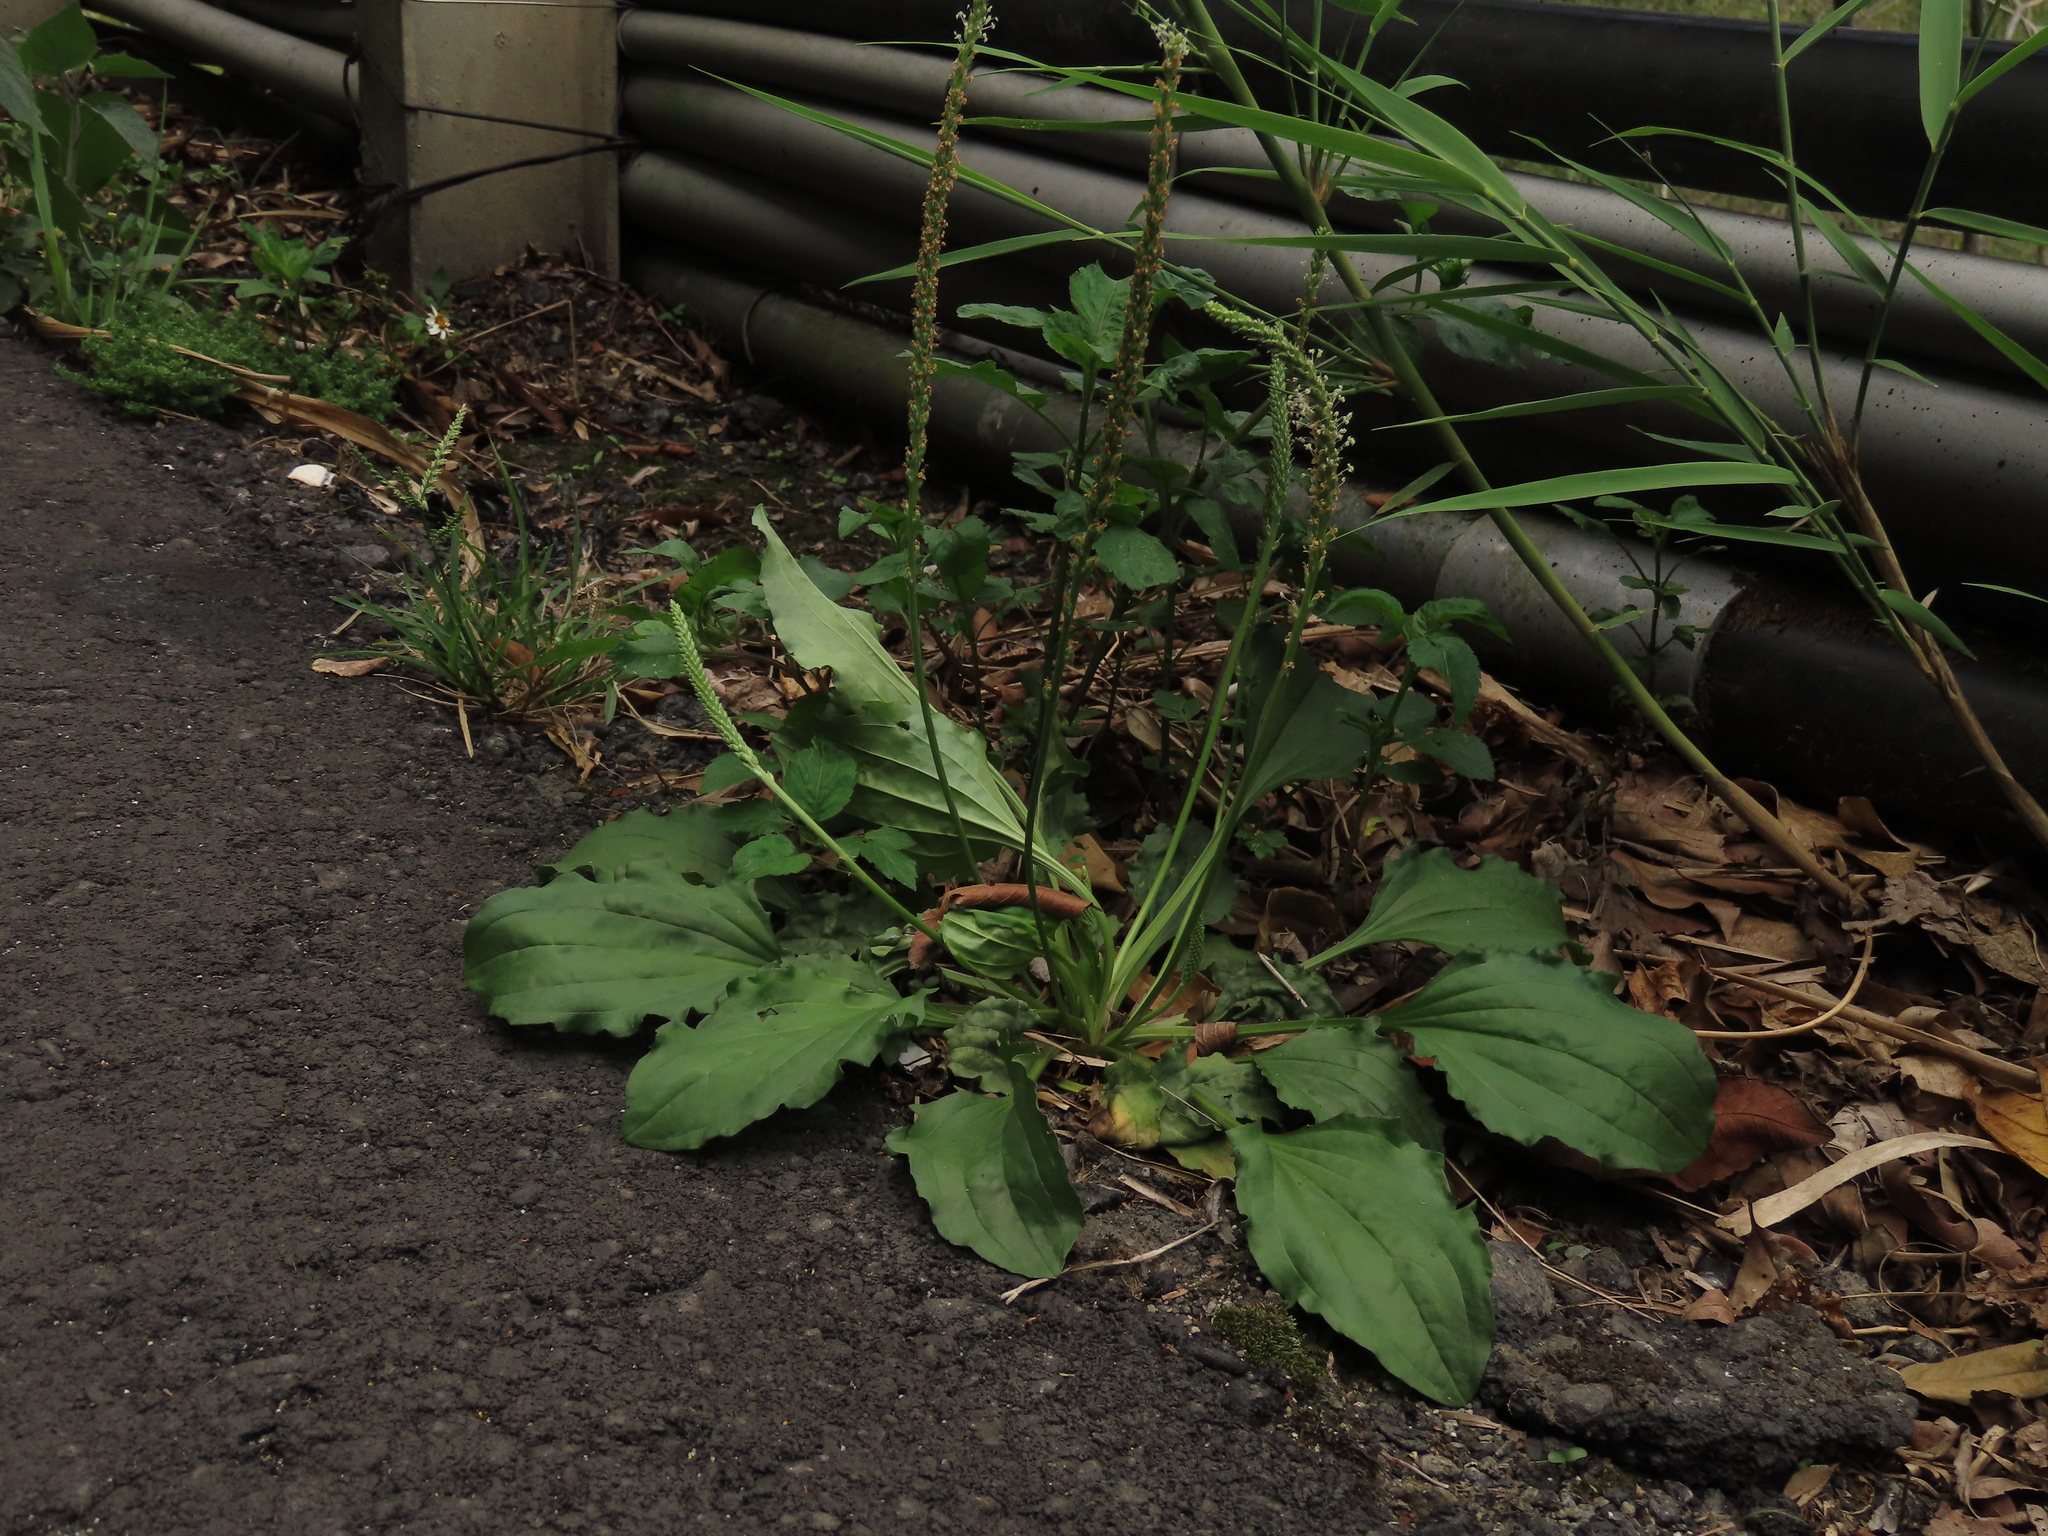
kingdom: Plantae
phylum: Tracheophyta
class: Magnoliopsida
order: Lamiales
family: Plantaginaceae
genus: Plantago
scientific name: Plantago asiatica
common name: Psyllium
